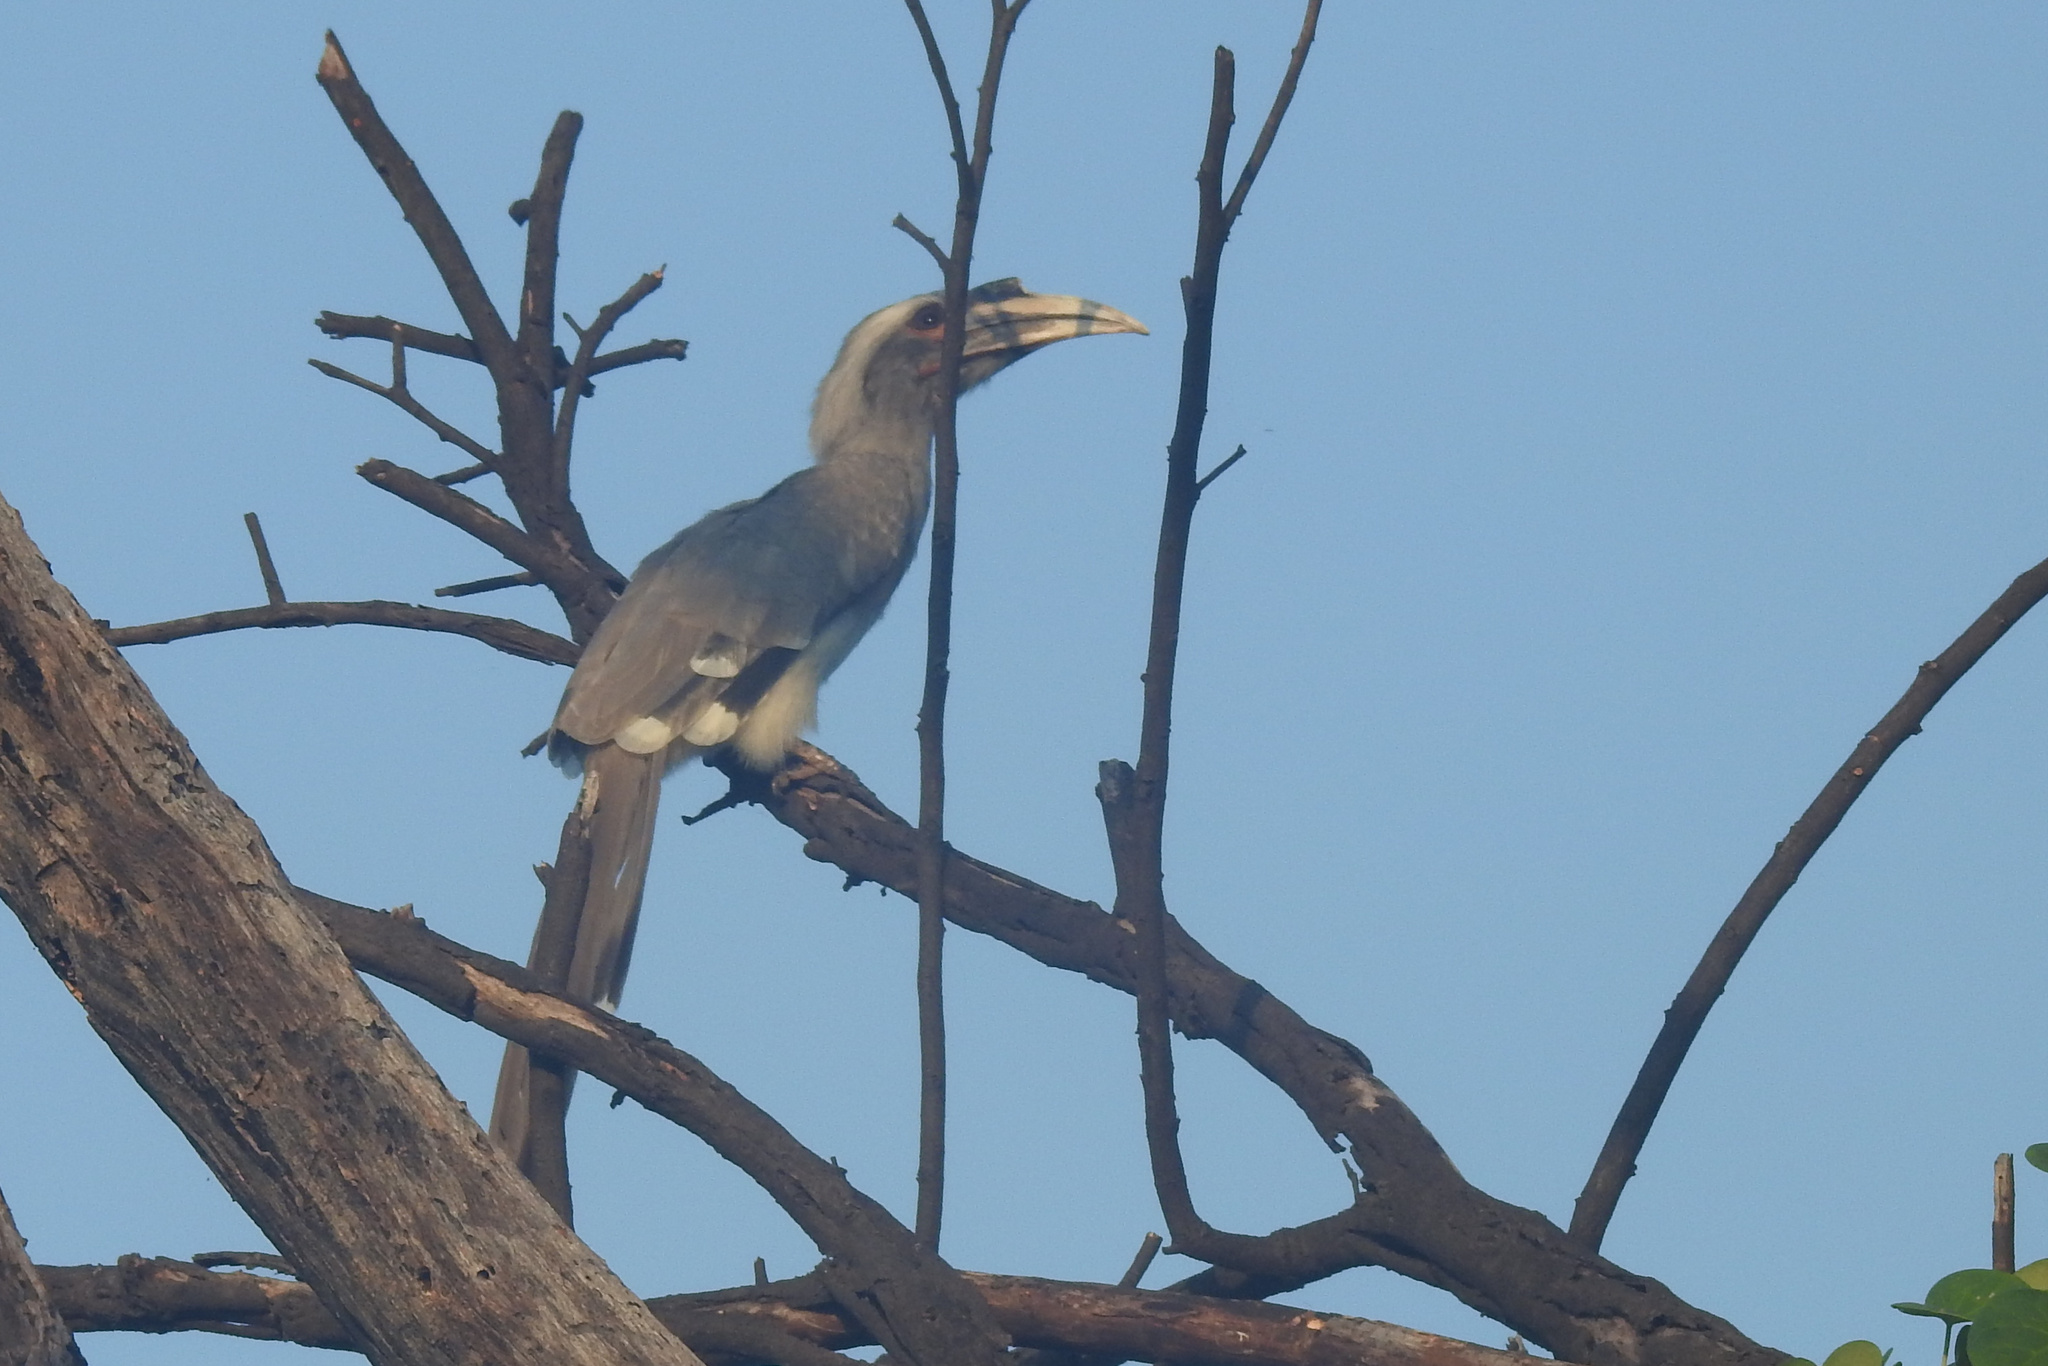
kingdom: Animalia
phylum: Chordata
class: Aves
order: Bucerotiformes
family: Bucerotidae
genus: Ocyceros
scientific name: Ocyceros birostris
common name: Indian grey hornbill
